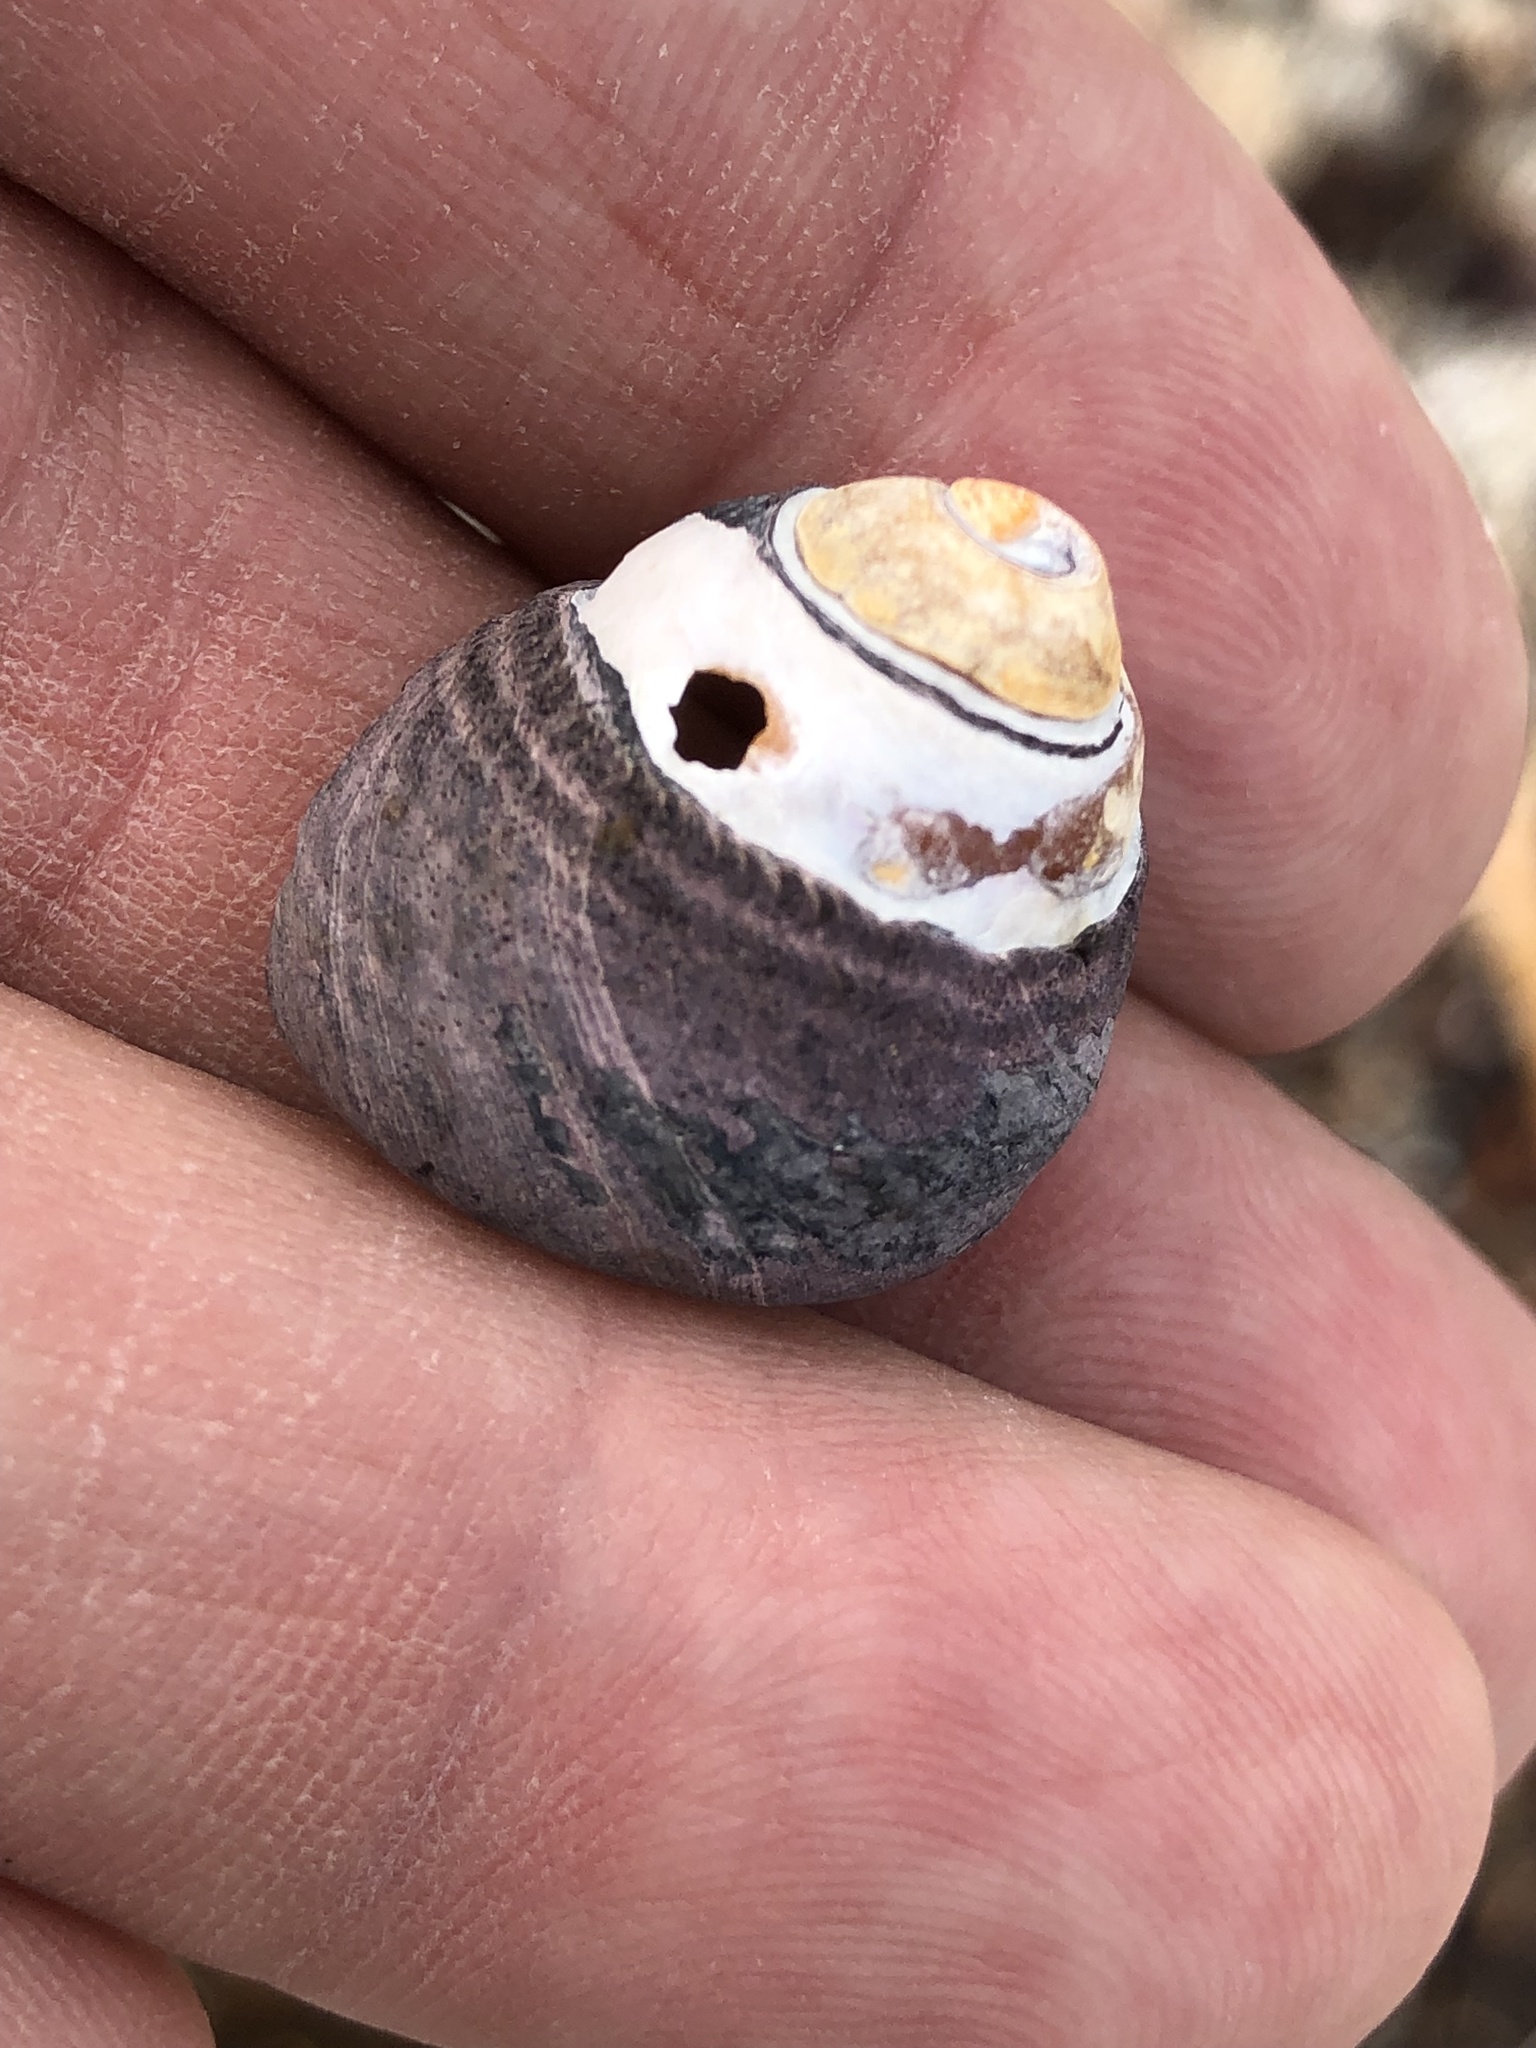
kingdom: Animalia
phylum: Mollusca
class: Gastropoda
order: Trochida
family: Tegulidae
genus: Tegula
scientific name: Tegula funebralis
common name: Black tegula
